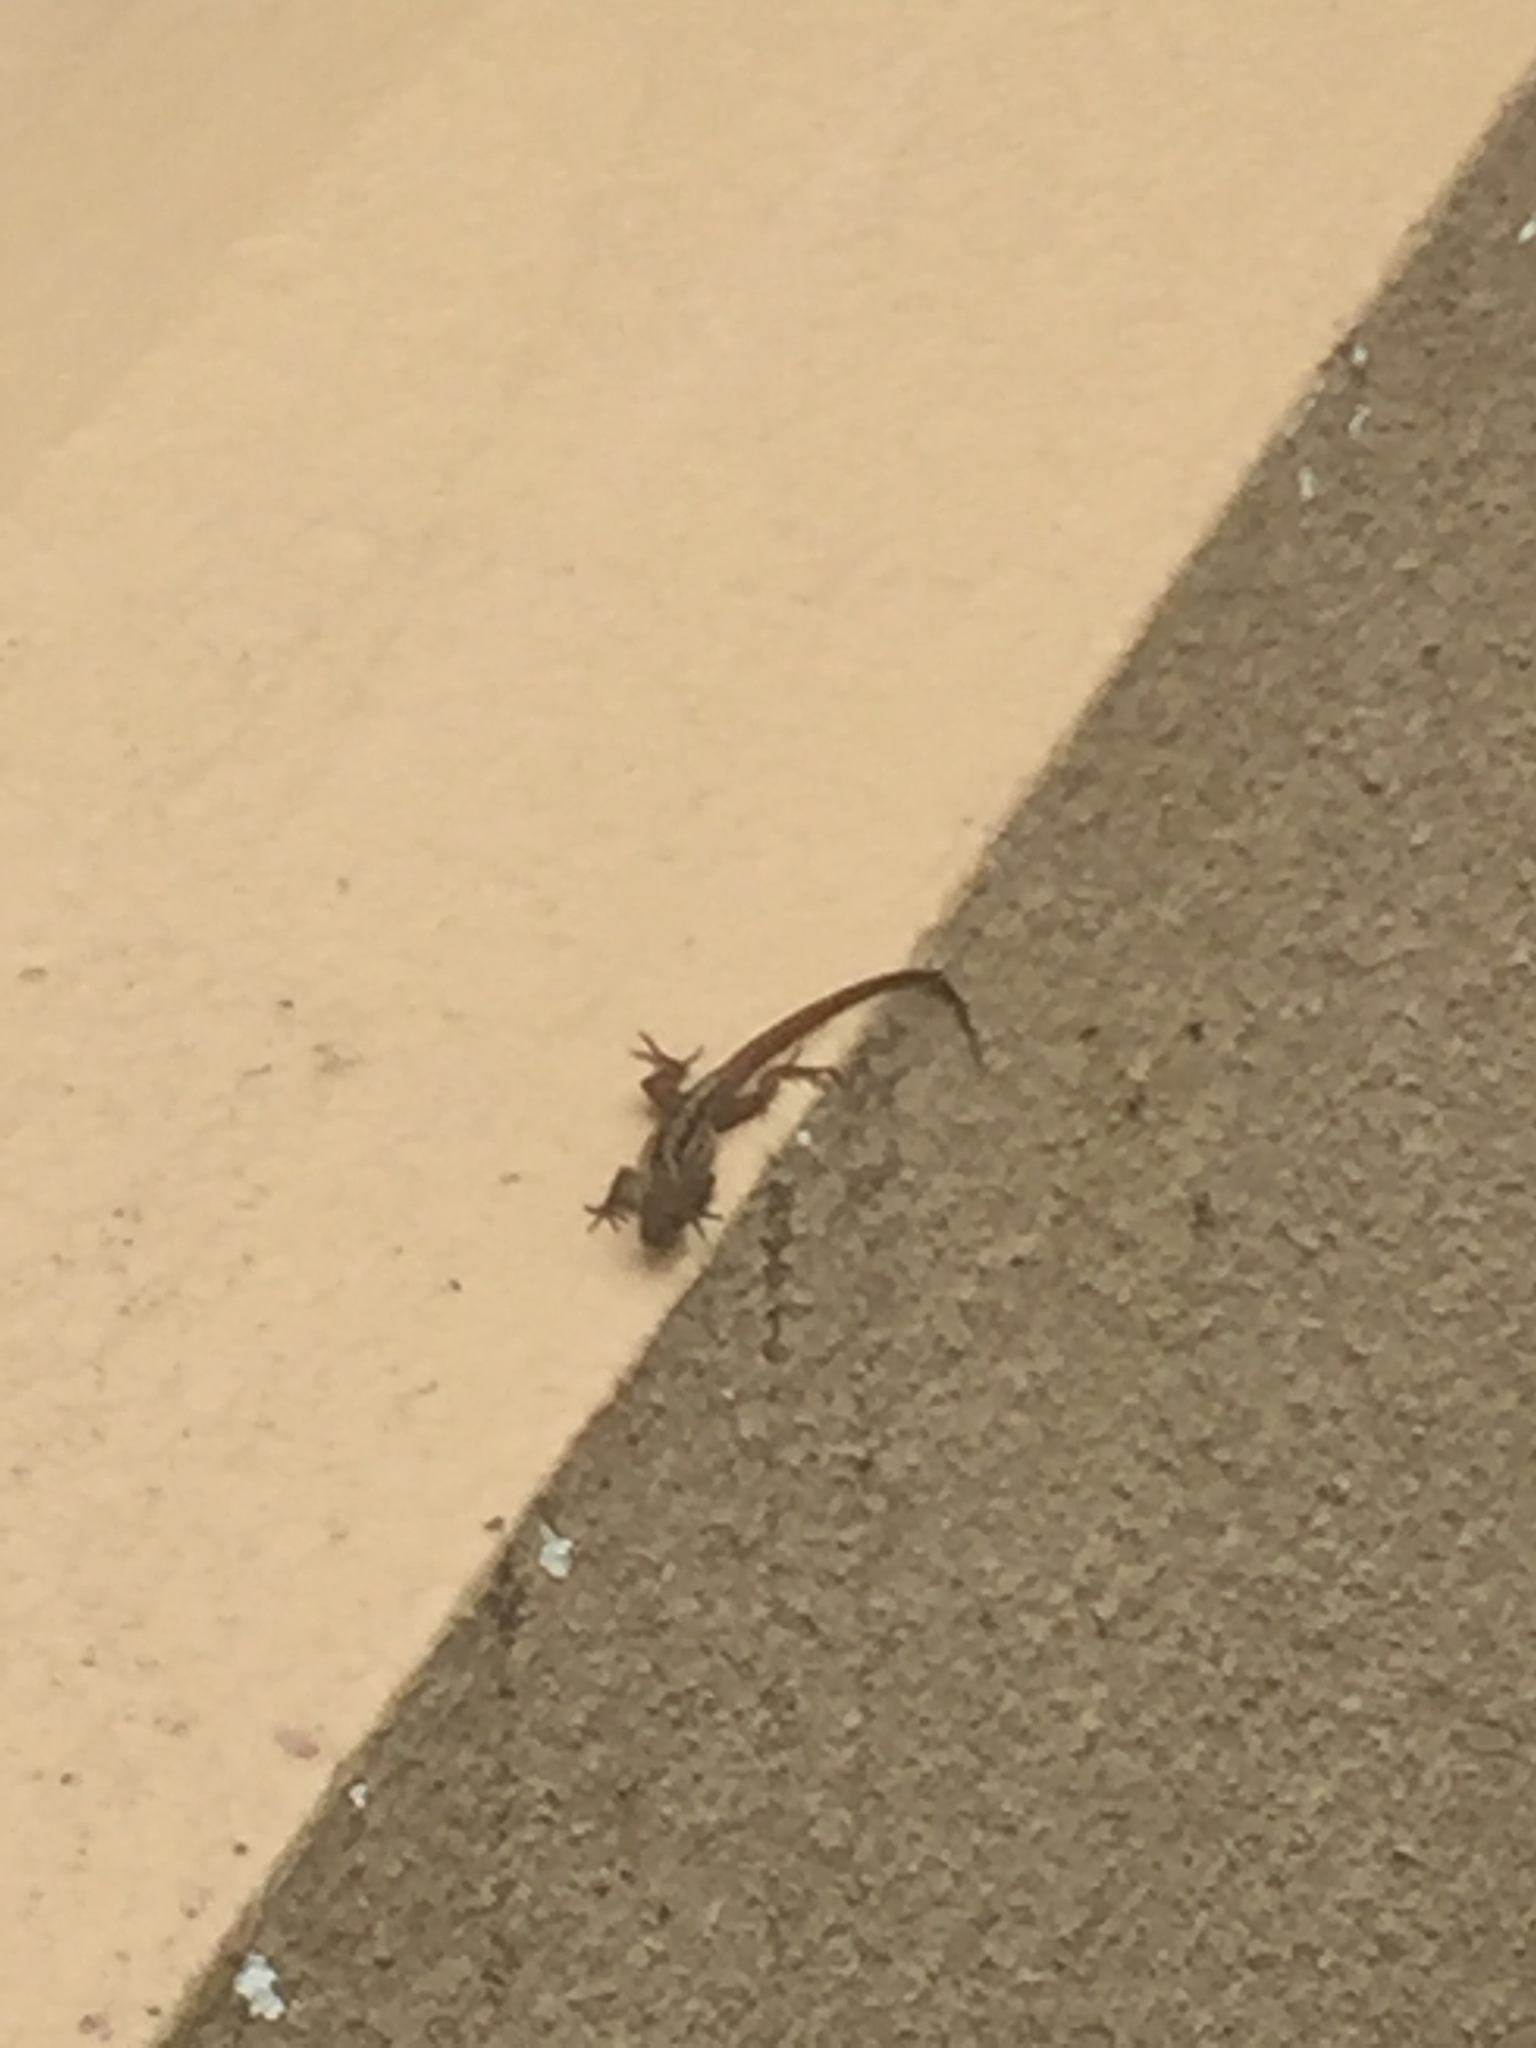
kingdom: Animalia
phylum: Chordata
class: Squamata
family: Dactyloidae
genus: Anolis
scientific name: Anolis sagrei
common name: Brown anole
